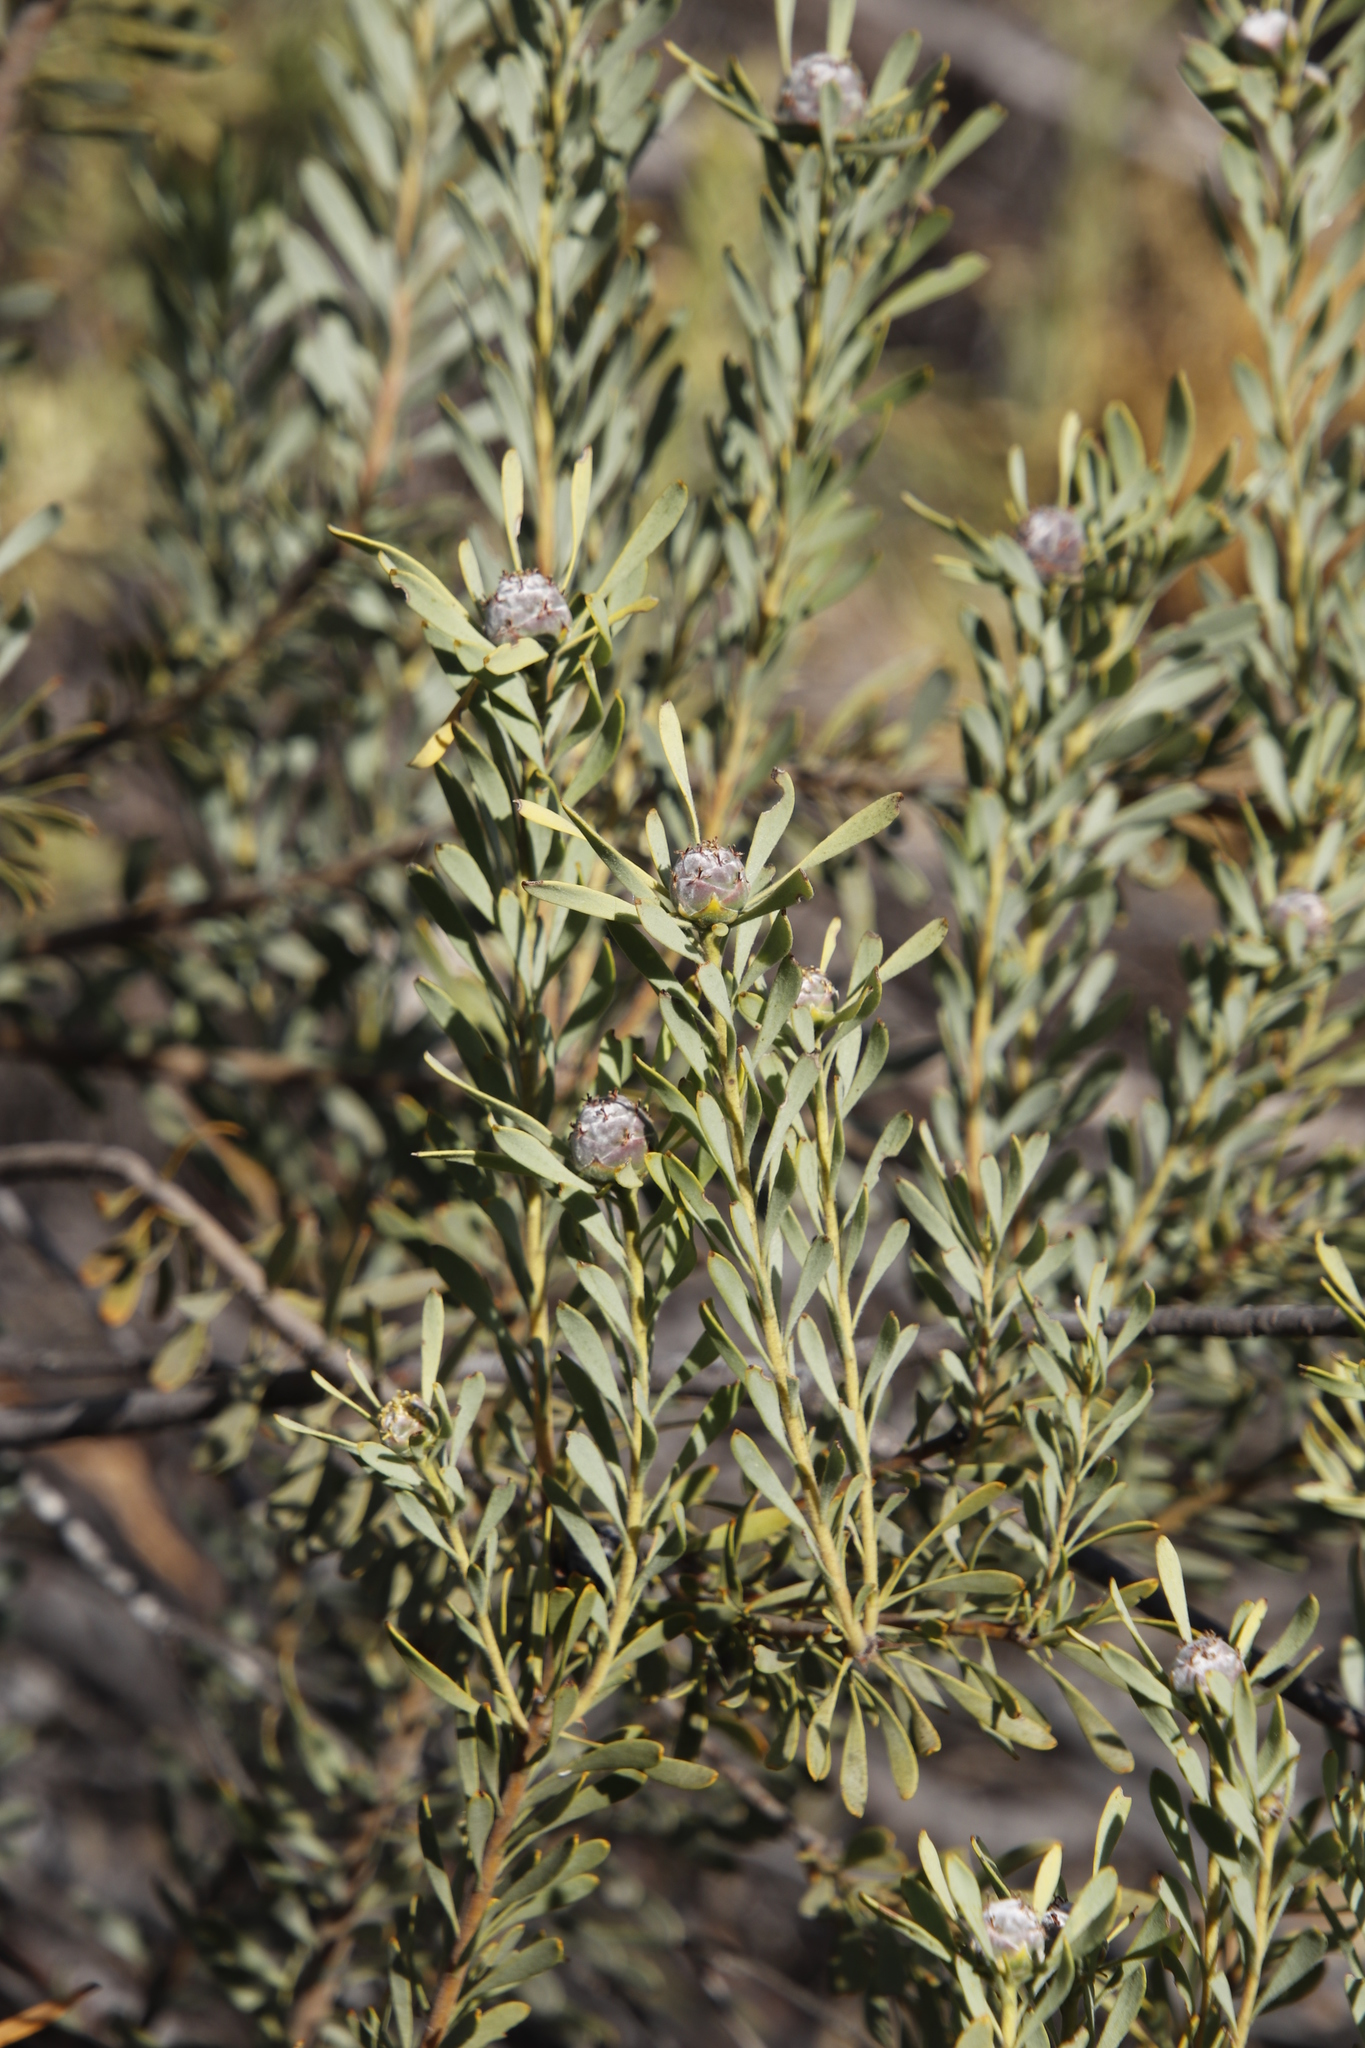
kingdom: Plantae
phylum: Tracheophyta
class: Magnoliopsida
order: Proteales
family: Proteaceae
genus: Leucadendron
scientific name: Leucadendron pubescens
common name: Grey conebush
